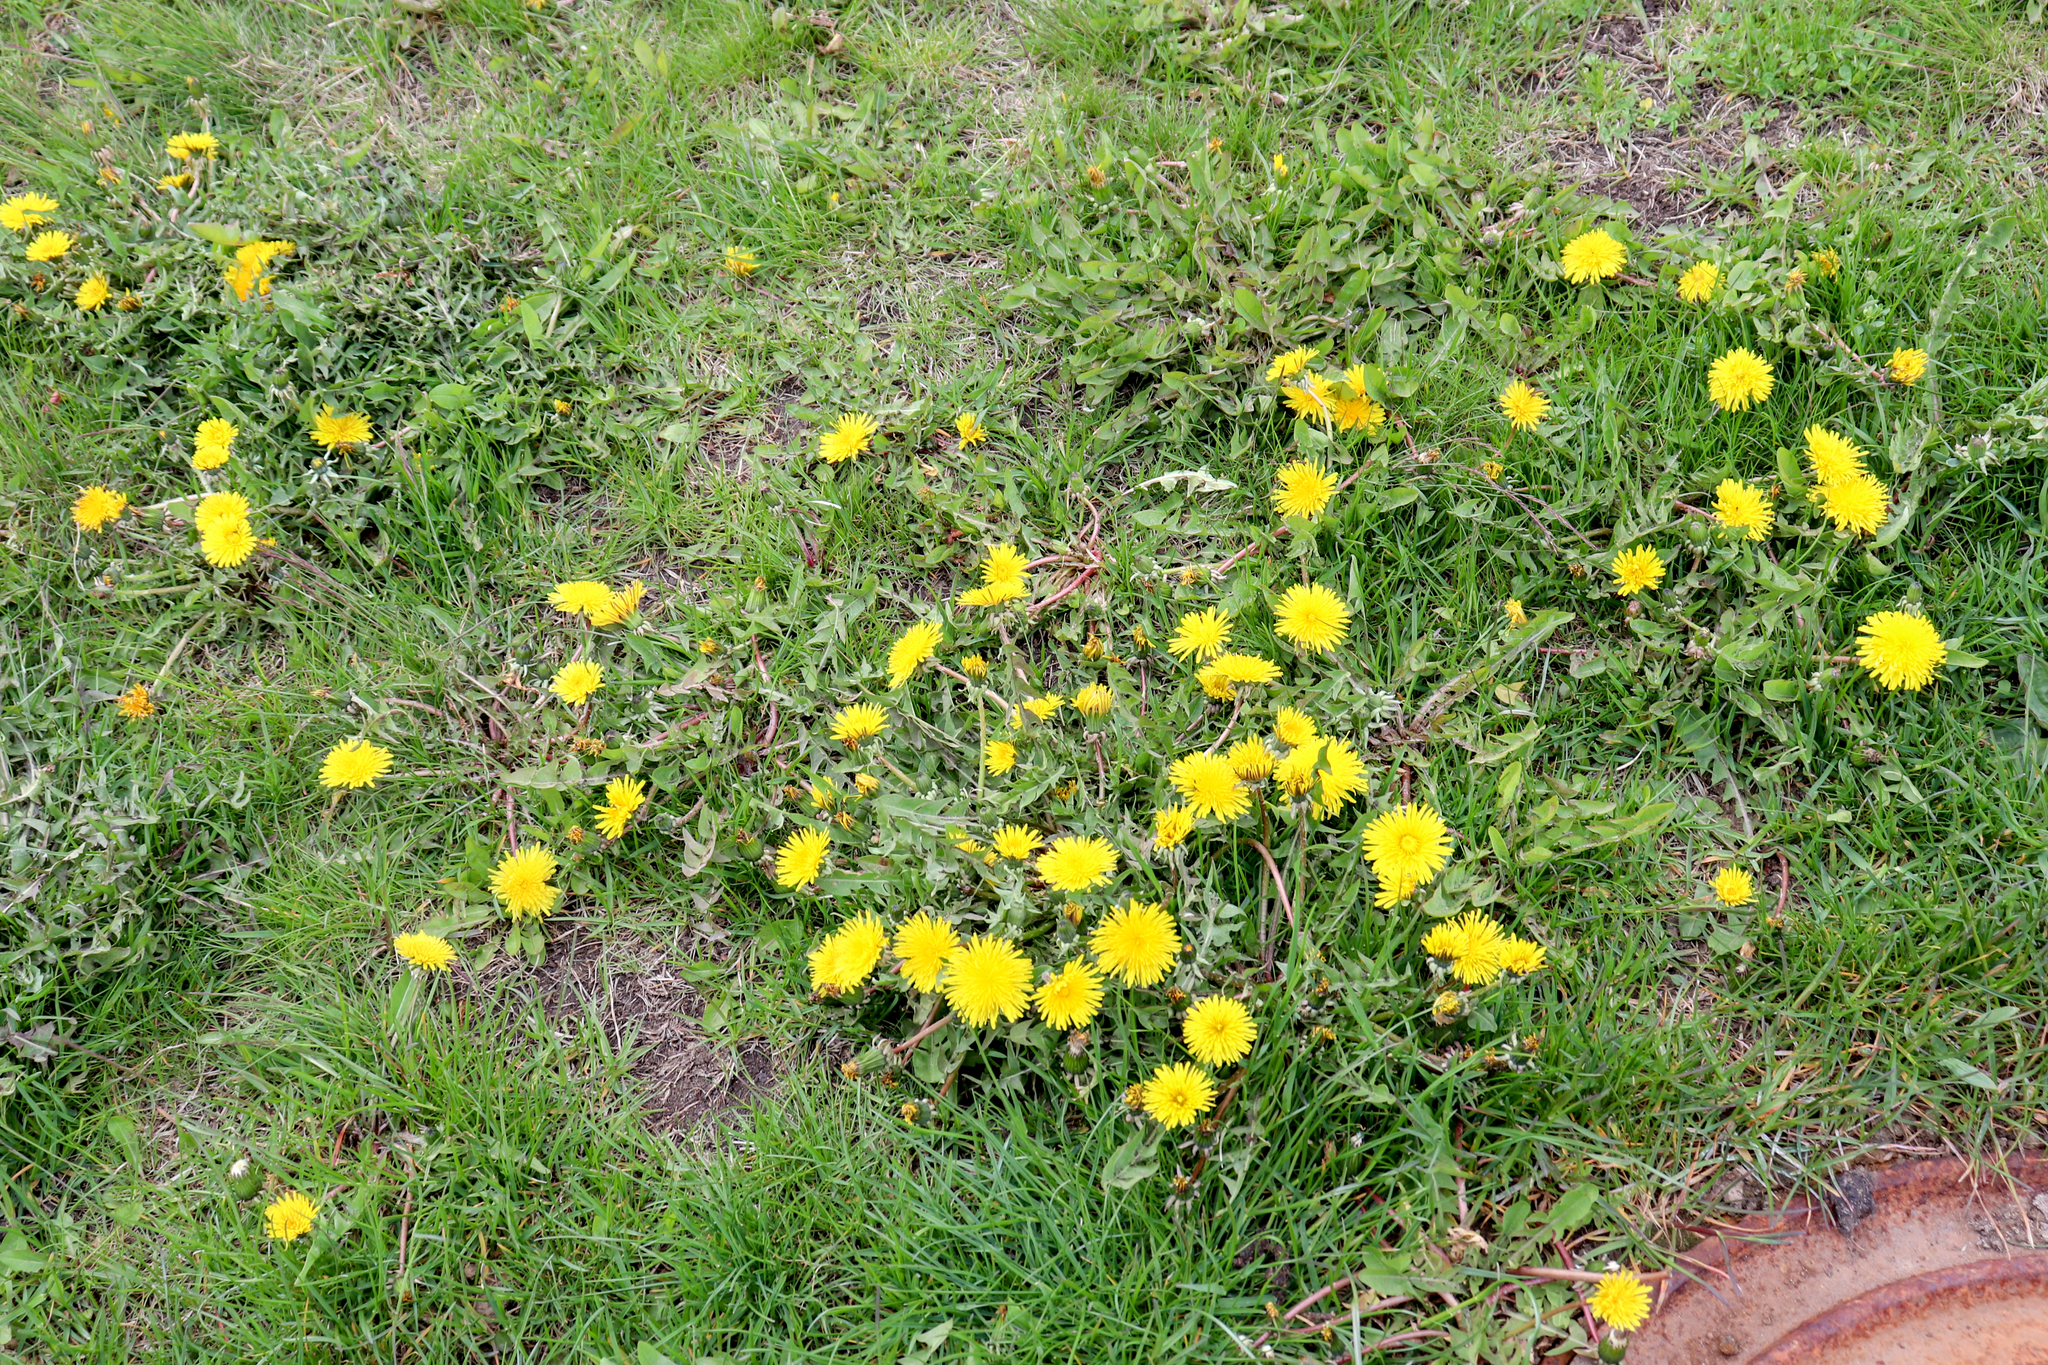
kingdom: Plantae
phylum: Tracheophyta
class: Magnoliopsida
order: Asterales
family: Asteraceae
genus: Taraxacum
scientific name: Taraxacum officinale
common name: Common dandelion
